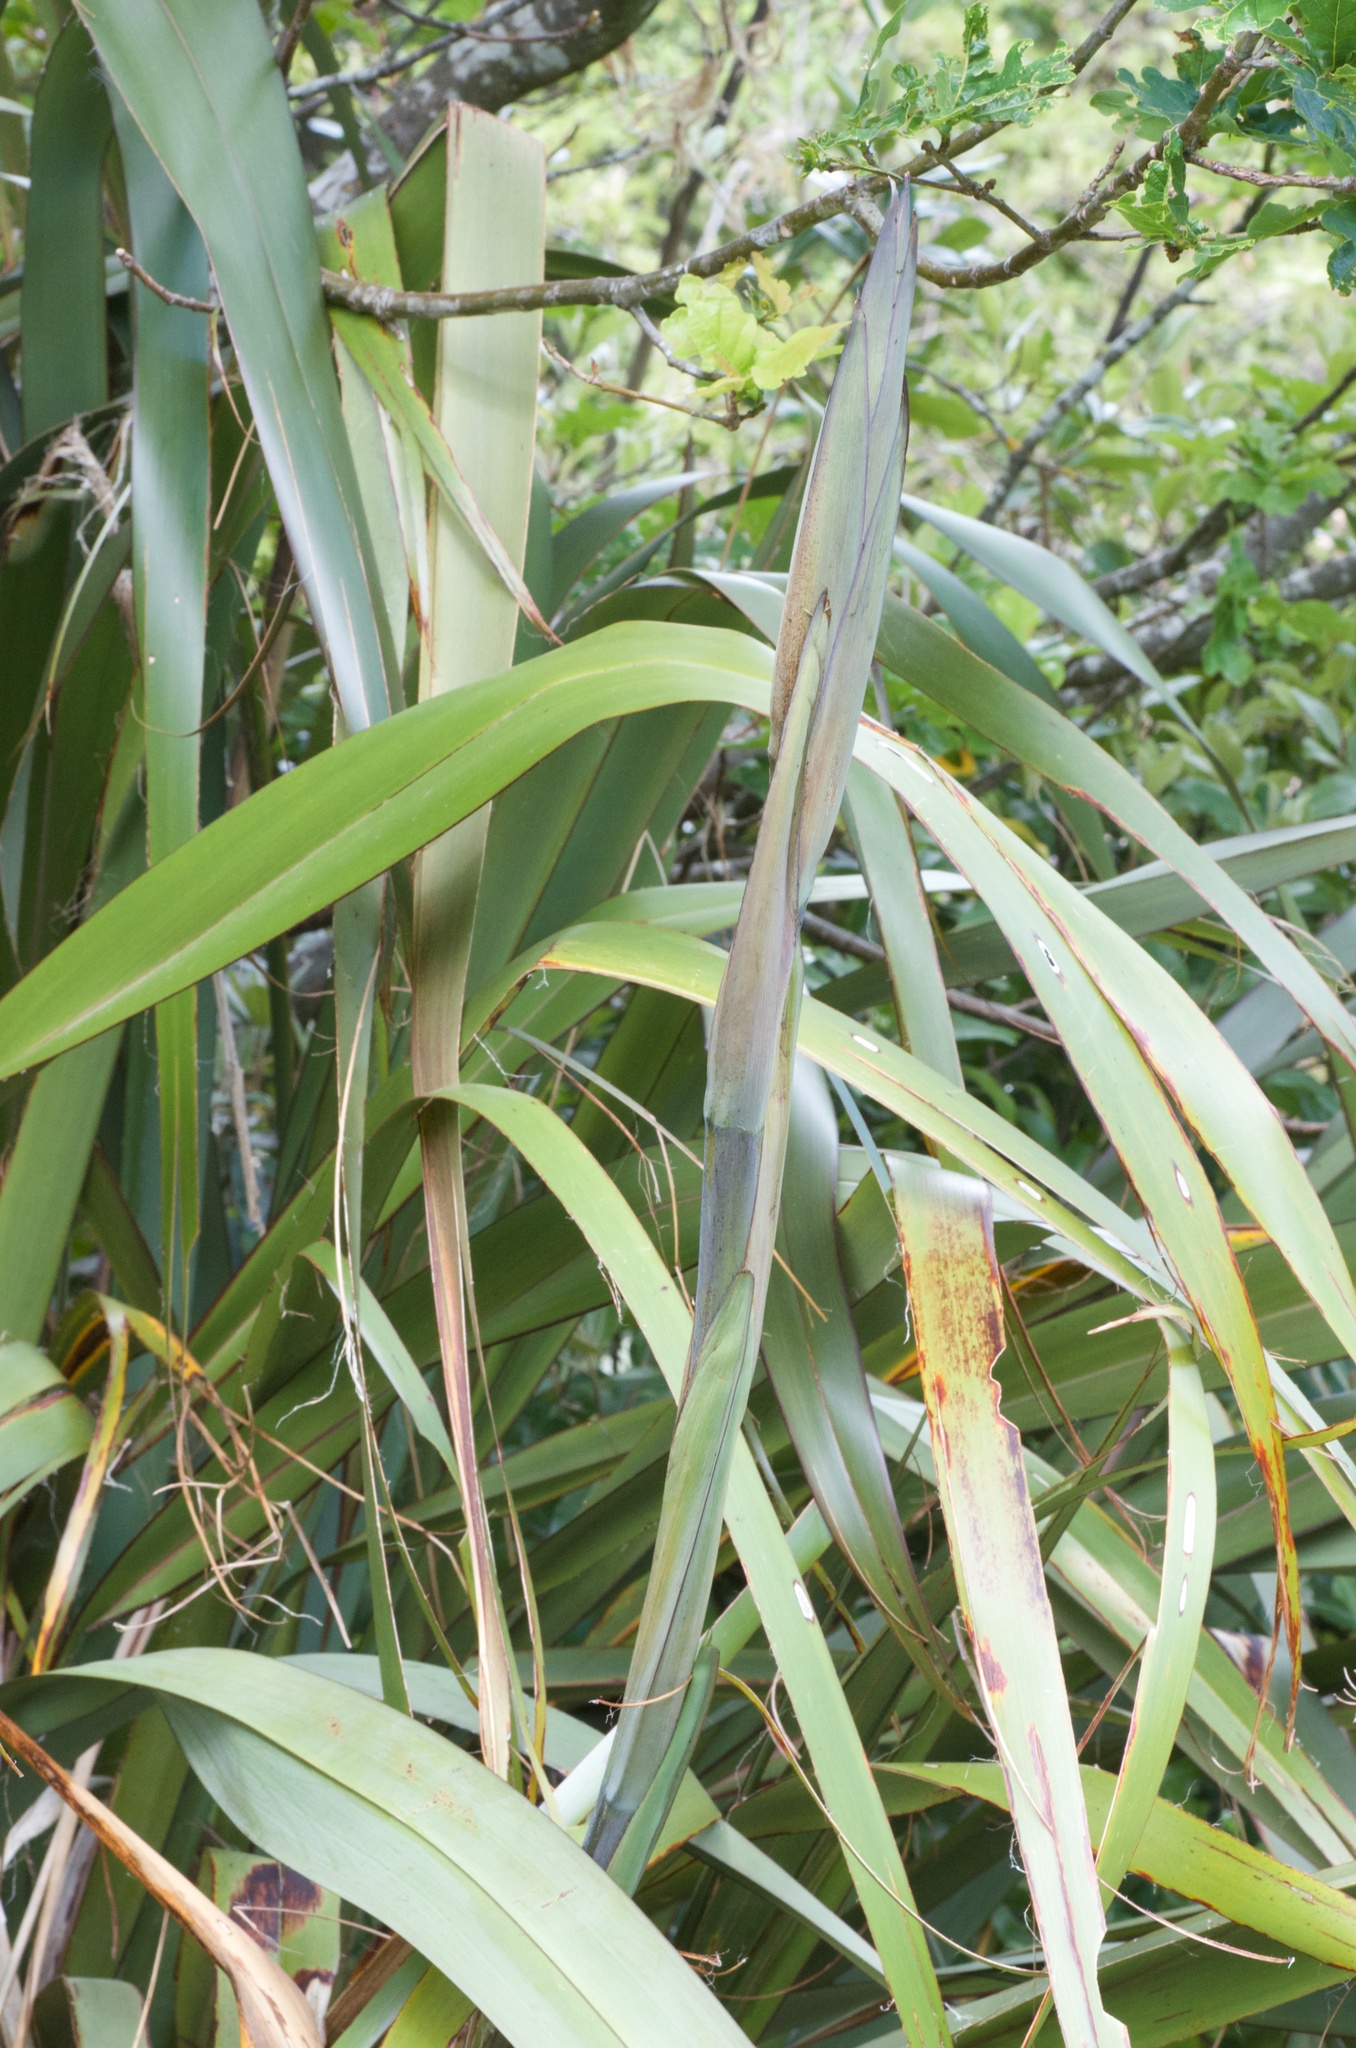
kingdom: Plantae
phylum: Tracheophyta
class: Liliopsida
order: Asparagales
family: Asphodelaceae
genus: Phormium
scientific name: Phormium colensoi
